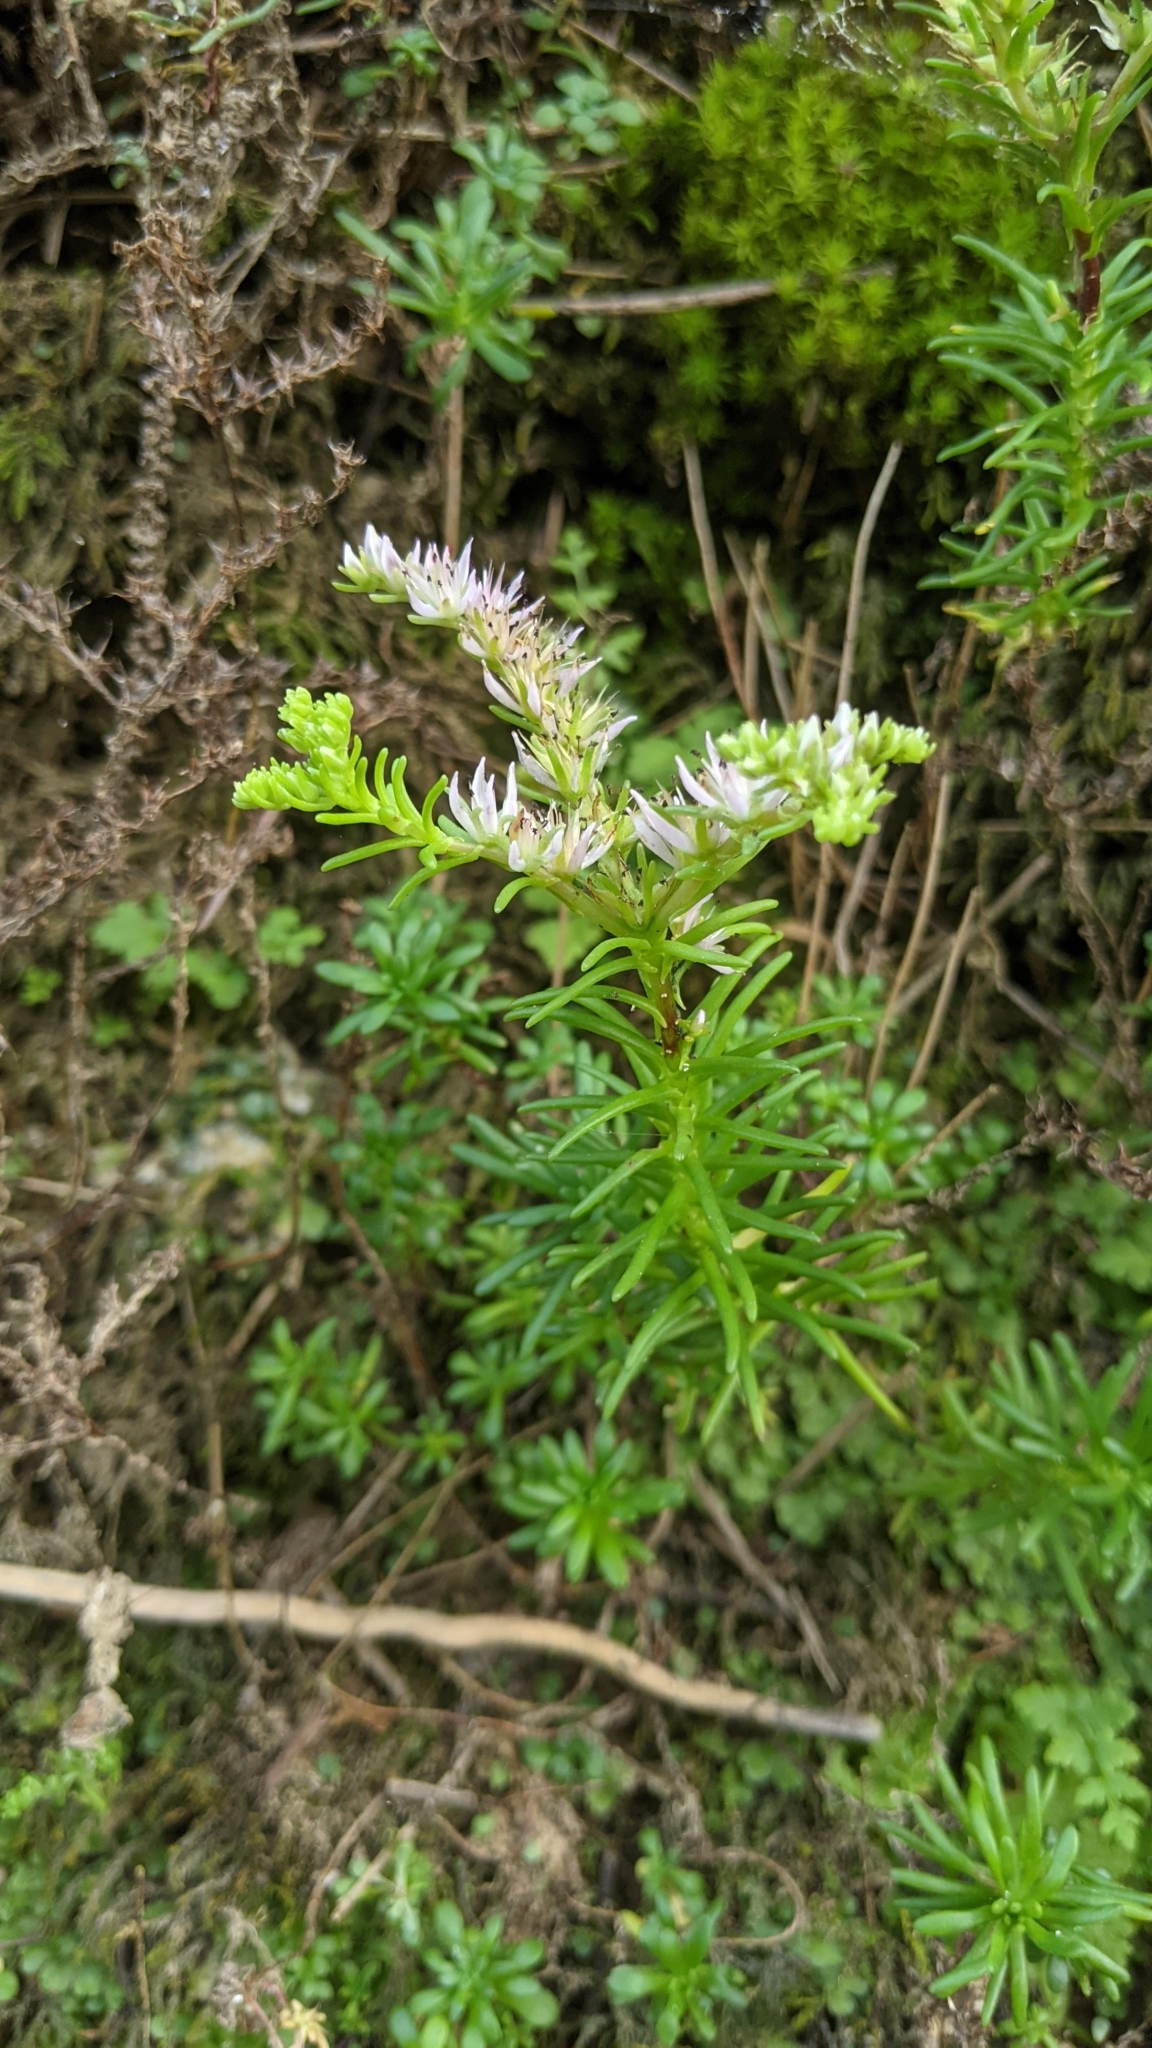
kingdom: Plantae
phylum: Tracheophyta
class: Magnoliopsida
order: Saxifragales
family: Crassulaceae
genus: Sedum
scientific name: Sedum pulchellum
